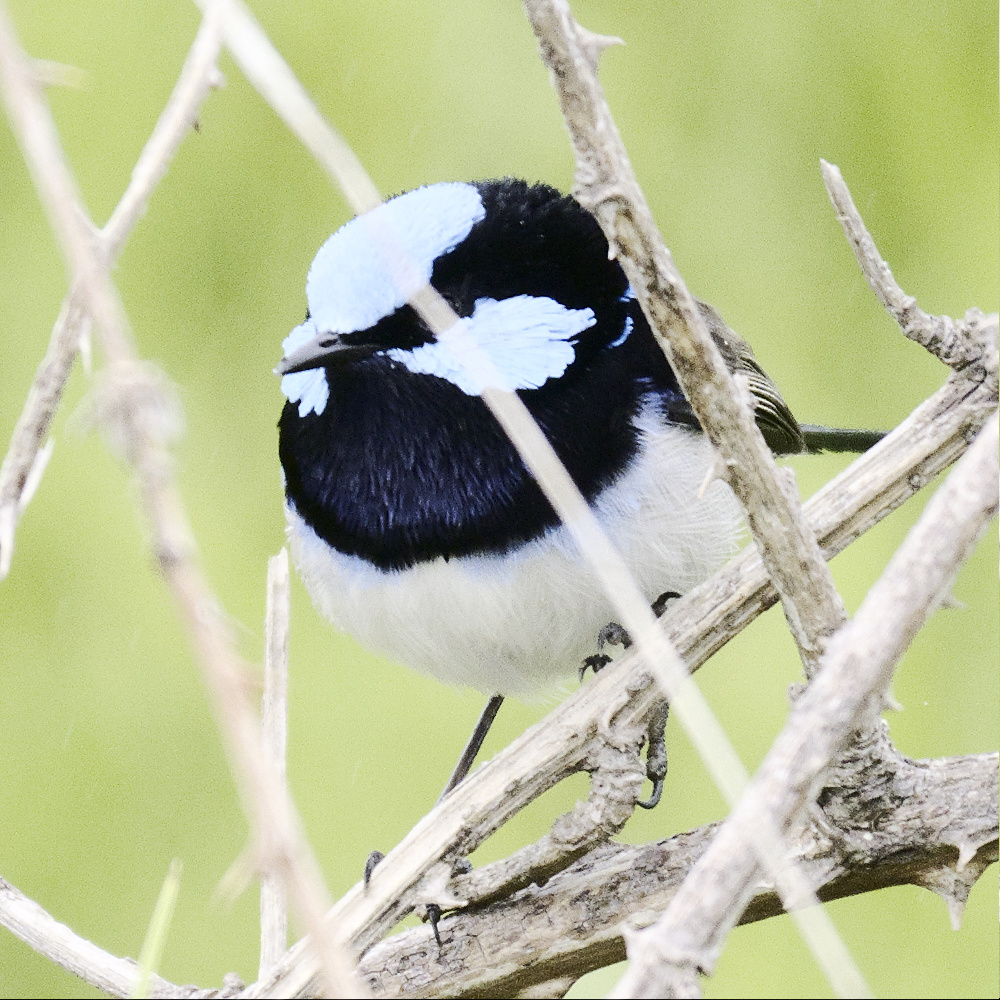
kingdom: Animalia
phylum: Chordata
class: Aves
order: Passeriformes
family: Maluridae
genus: Malurus
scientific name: Malurus cyaneus
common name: Superb fairywren
